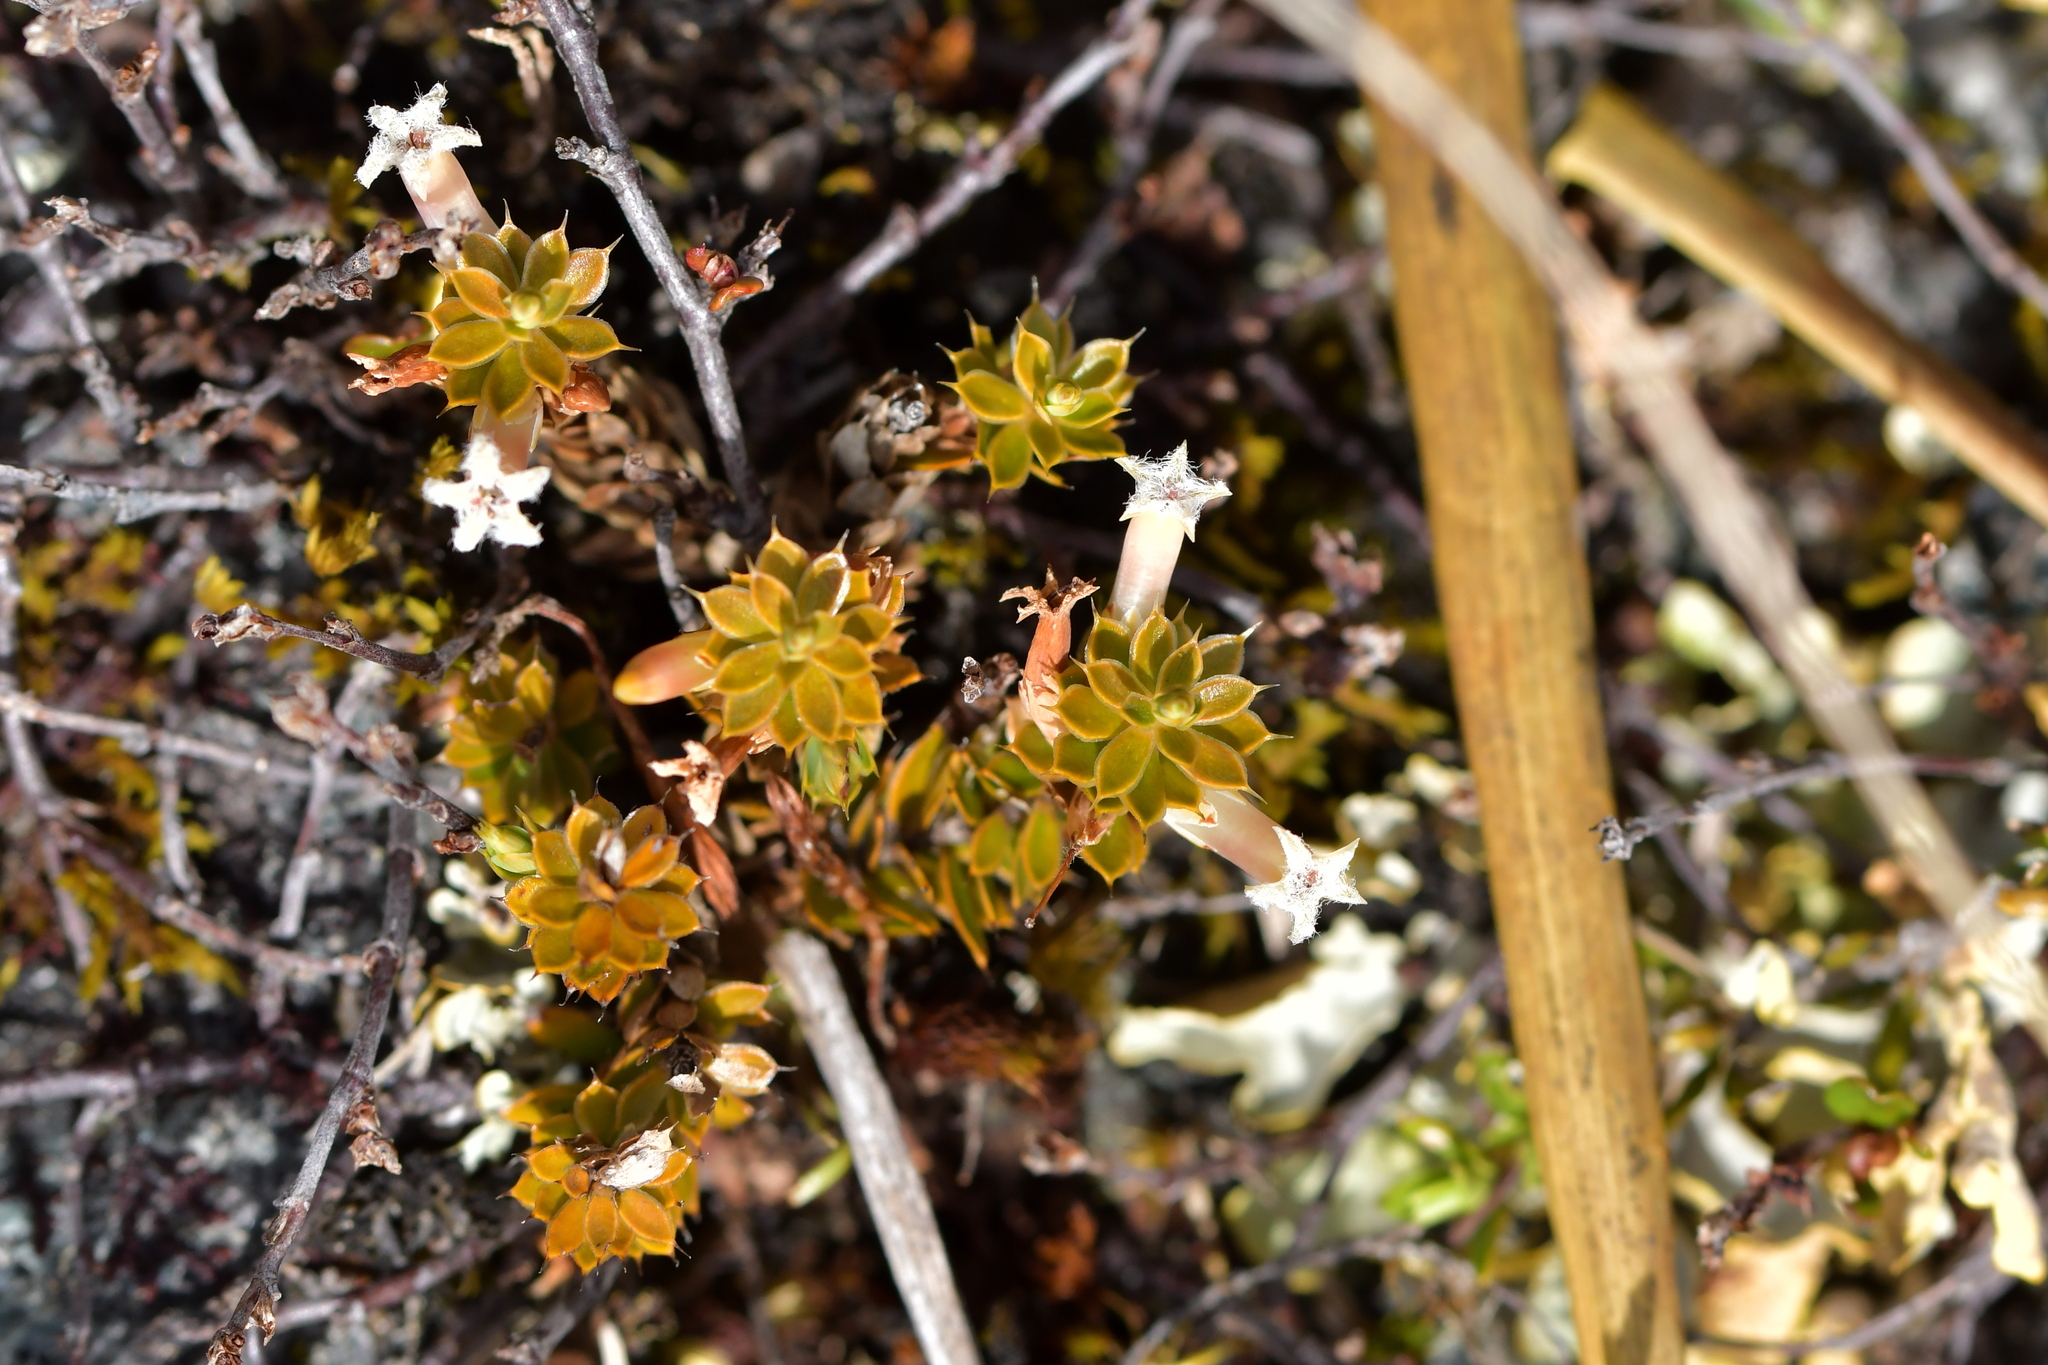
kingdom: Plantae
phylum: Tracheophyta
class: Magnoliopsida
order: Ericales
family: Ericaceae
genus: Styphelia
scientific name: Styphelia nesophila
